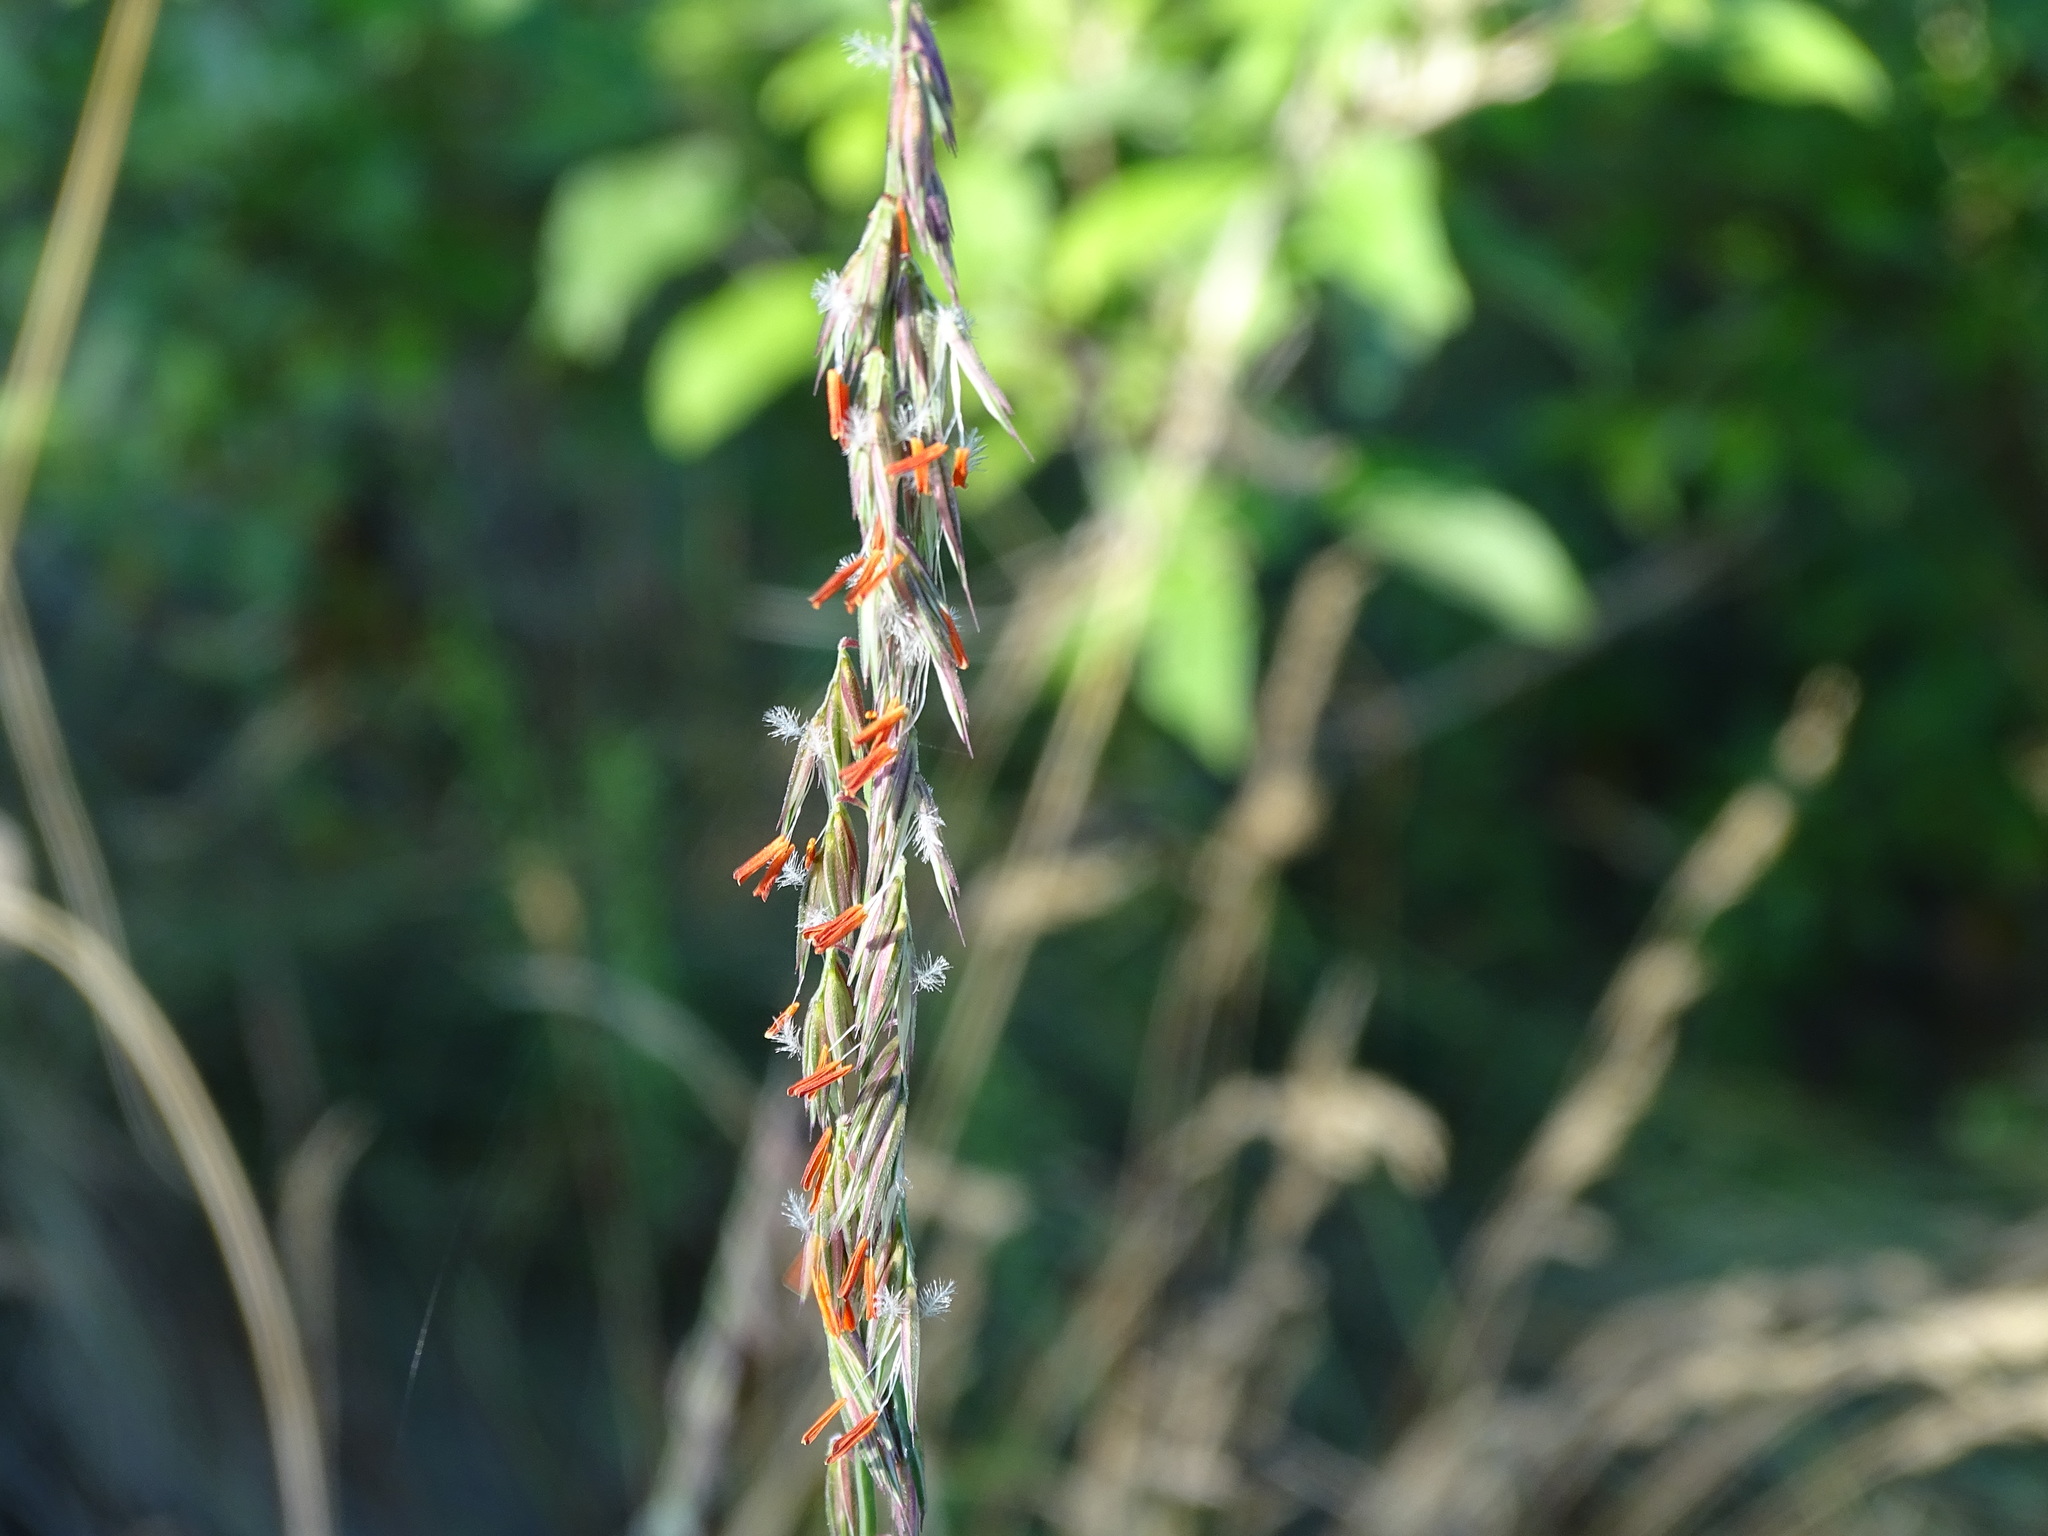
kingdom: Plantae
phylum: Tracheophyta
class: Liliopsida
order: Poales
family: Poaceae
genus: Bouteloua
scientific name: Bouteloua curtipendula
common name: Side-oats grama
